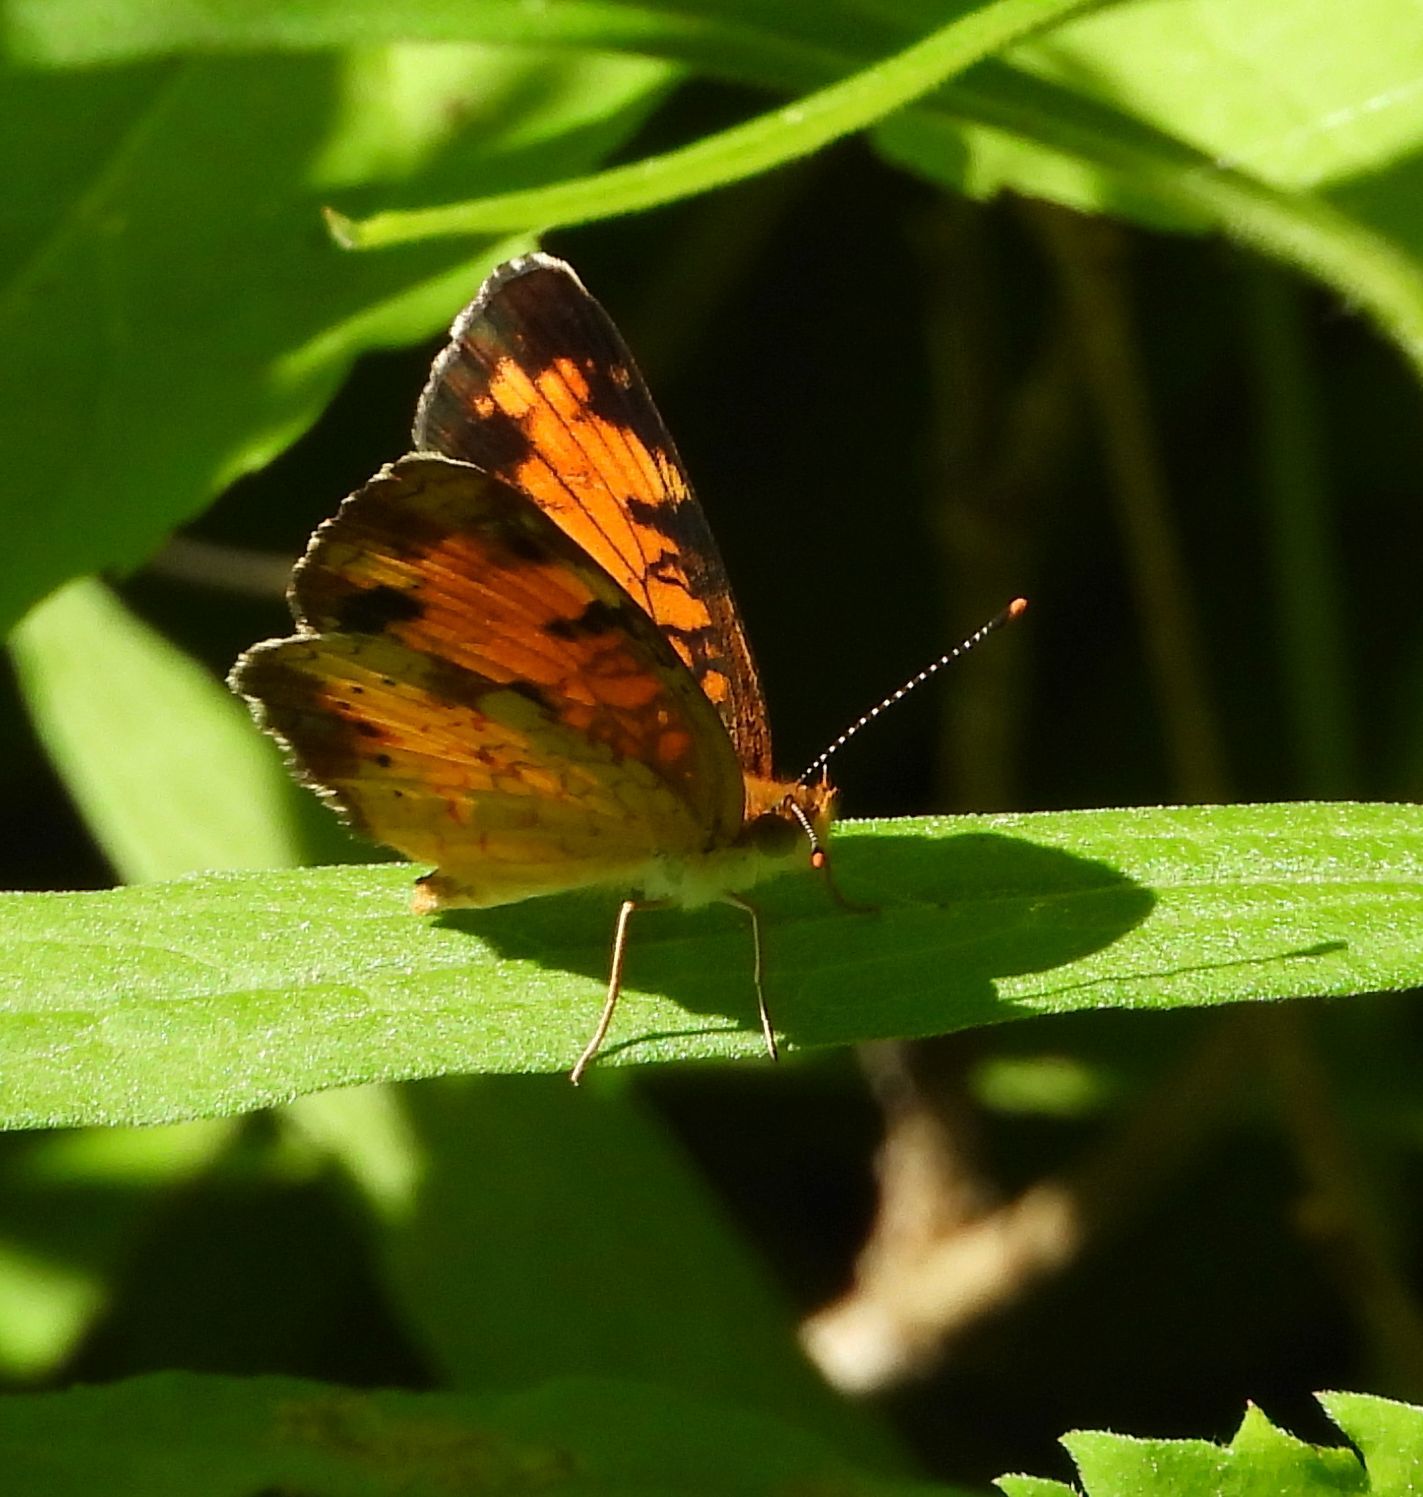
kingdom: Animalia
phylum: Arthropoda
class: Insecta
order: Lepidoptera
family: Nymphalidae
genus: Phyciodes
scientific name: Phyciodes tharos
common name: Pearl crescent
